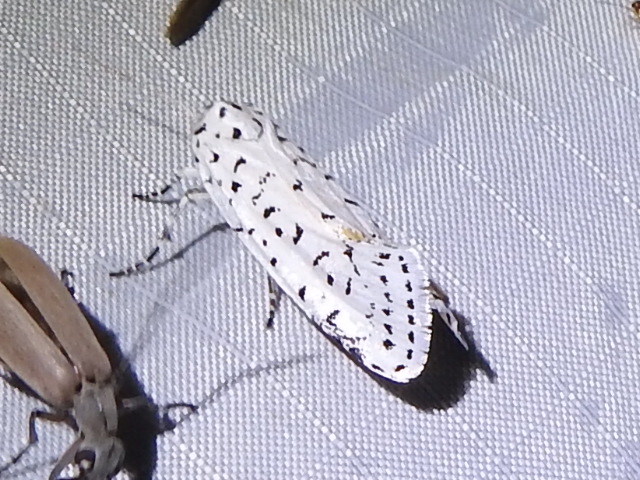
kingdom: Animalia
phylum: Arthropoda
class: Insecta
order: Lepidoptera
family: Noctuidae
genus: Cerathosia
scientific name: Cerathosia tricolor
